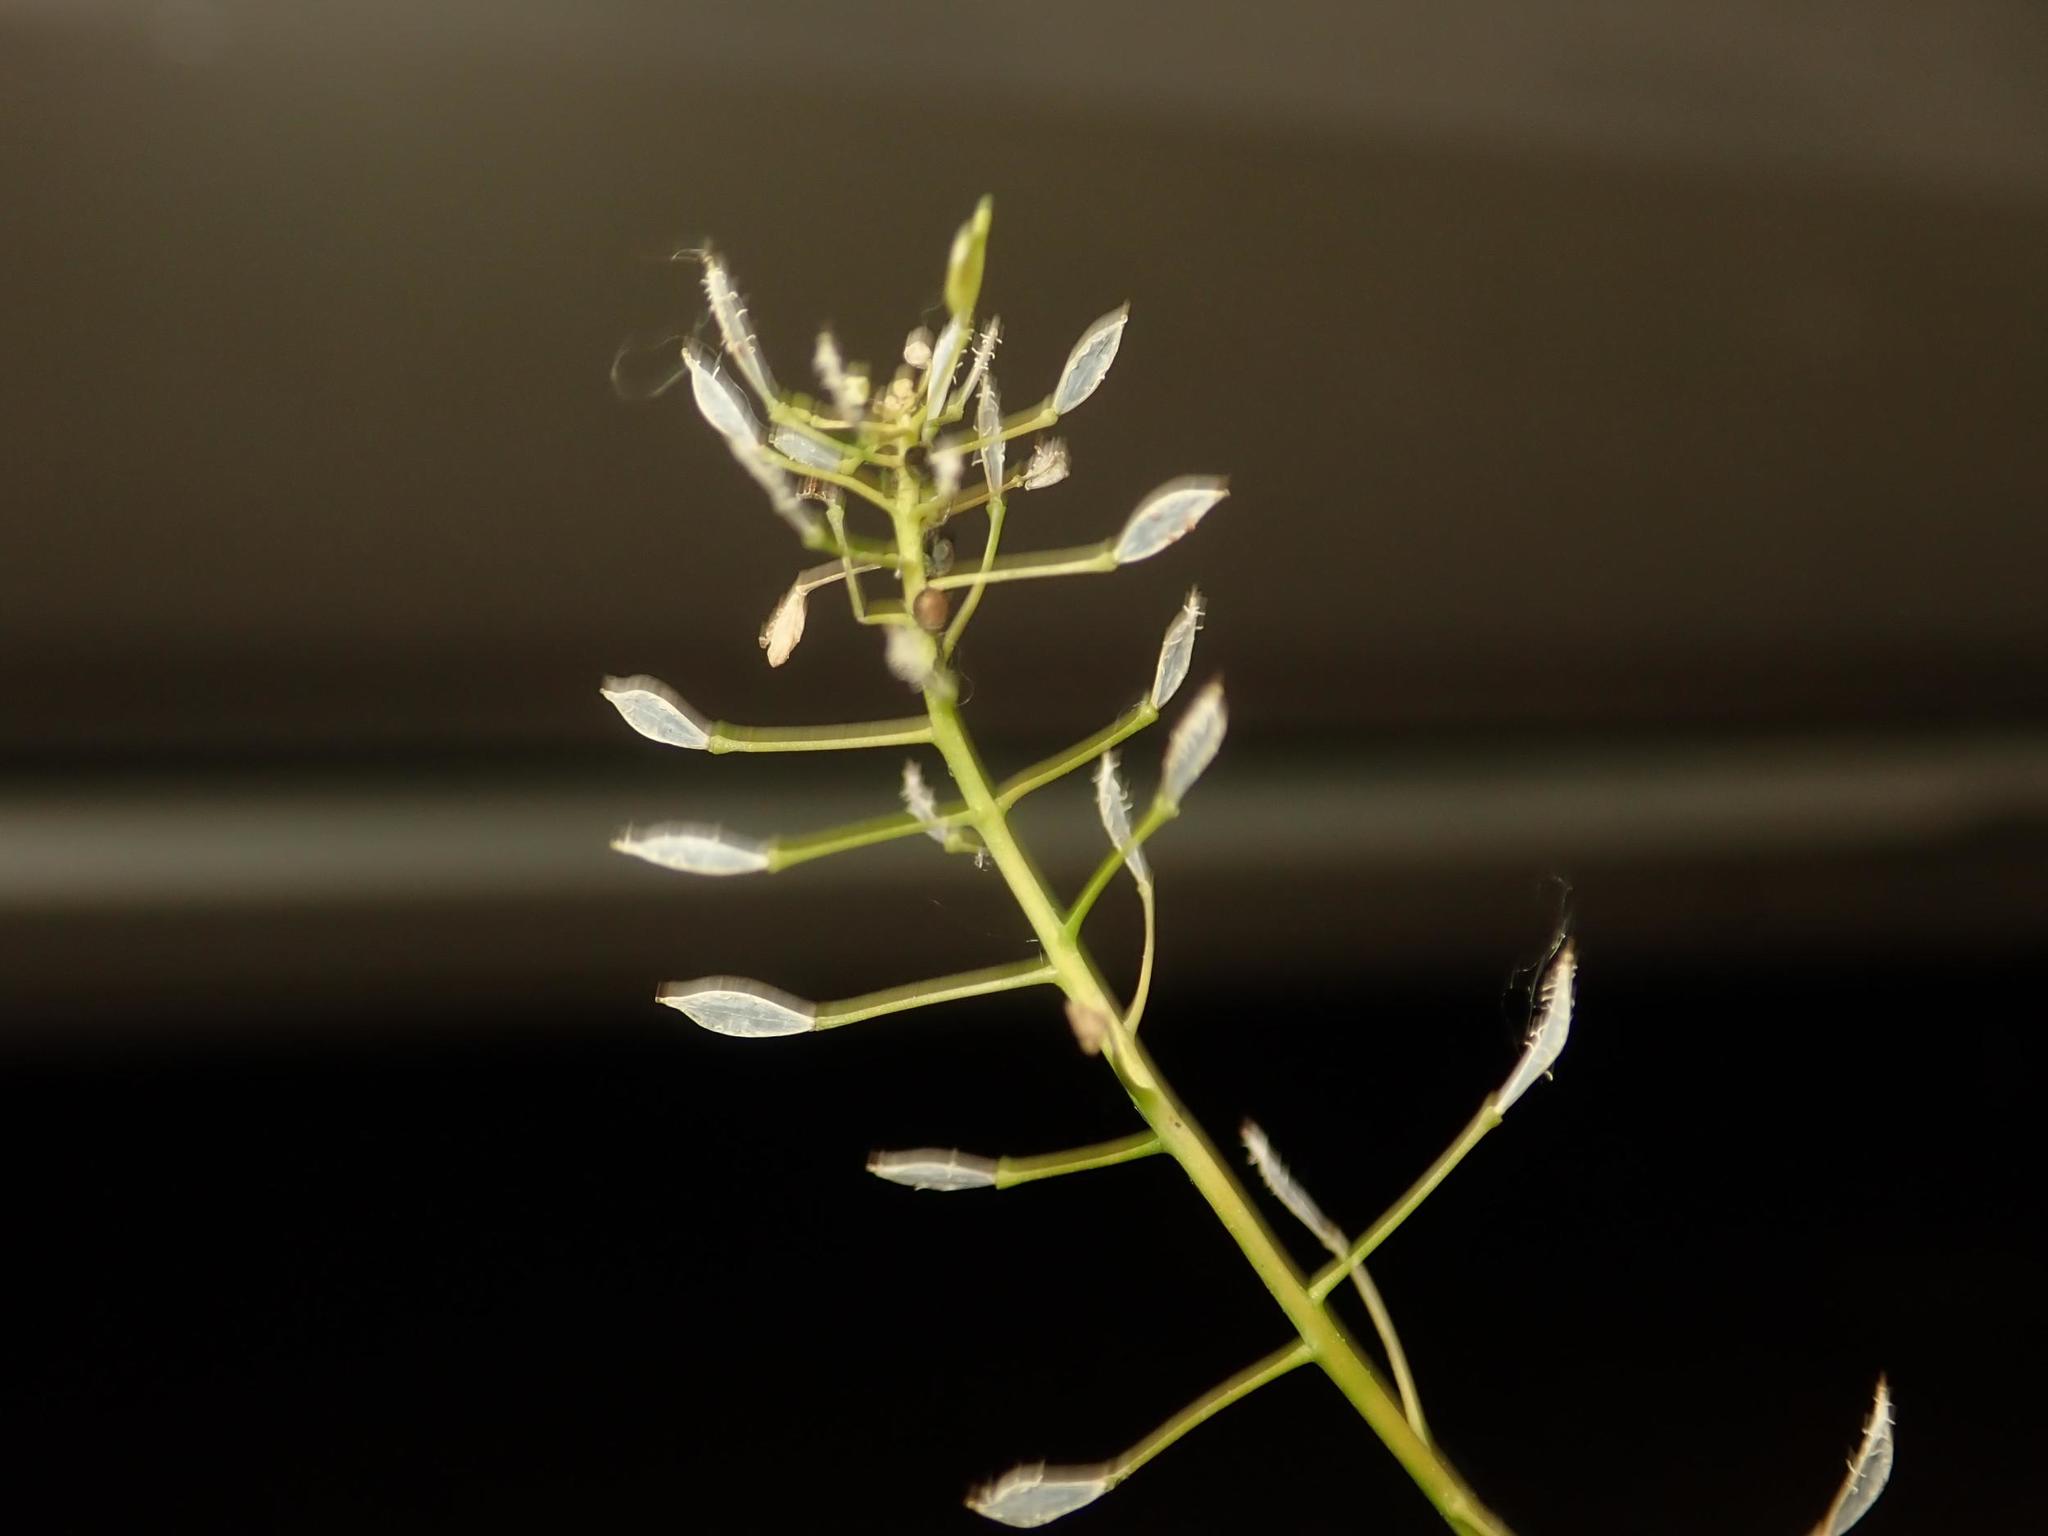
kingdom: Plantae
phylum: Tracheophyta
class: Magnoliopsida
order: Brassicales
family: Brassicaceae
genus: Capsella
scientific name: Capsella bursa-pastoris
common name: Shepherd's purse
